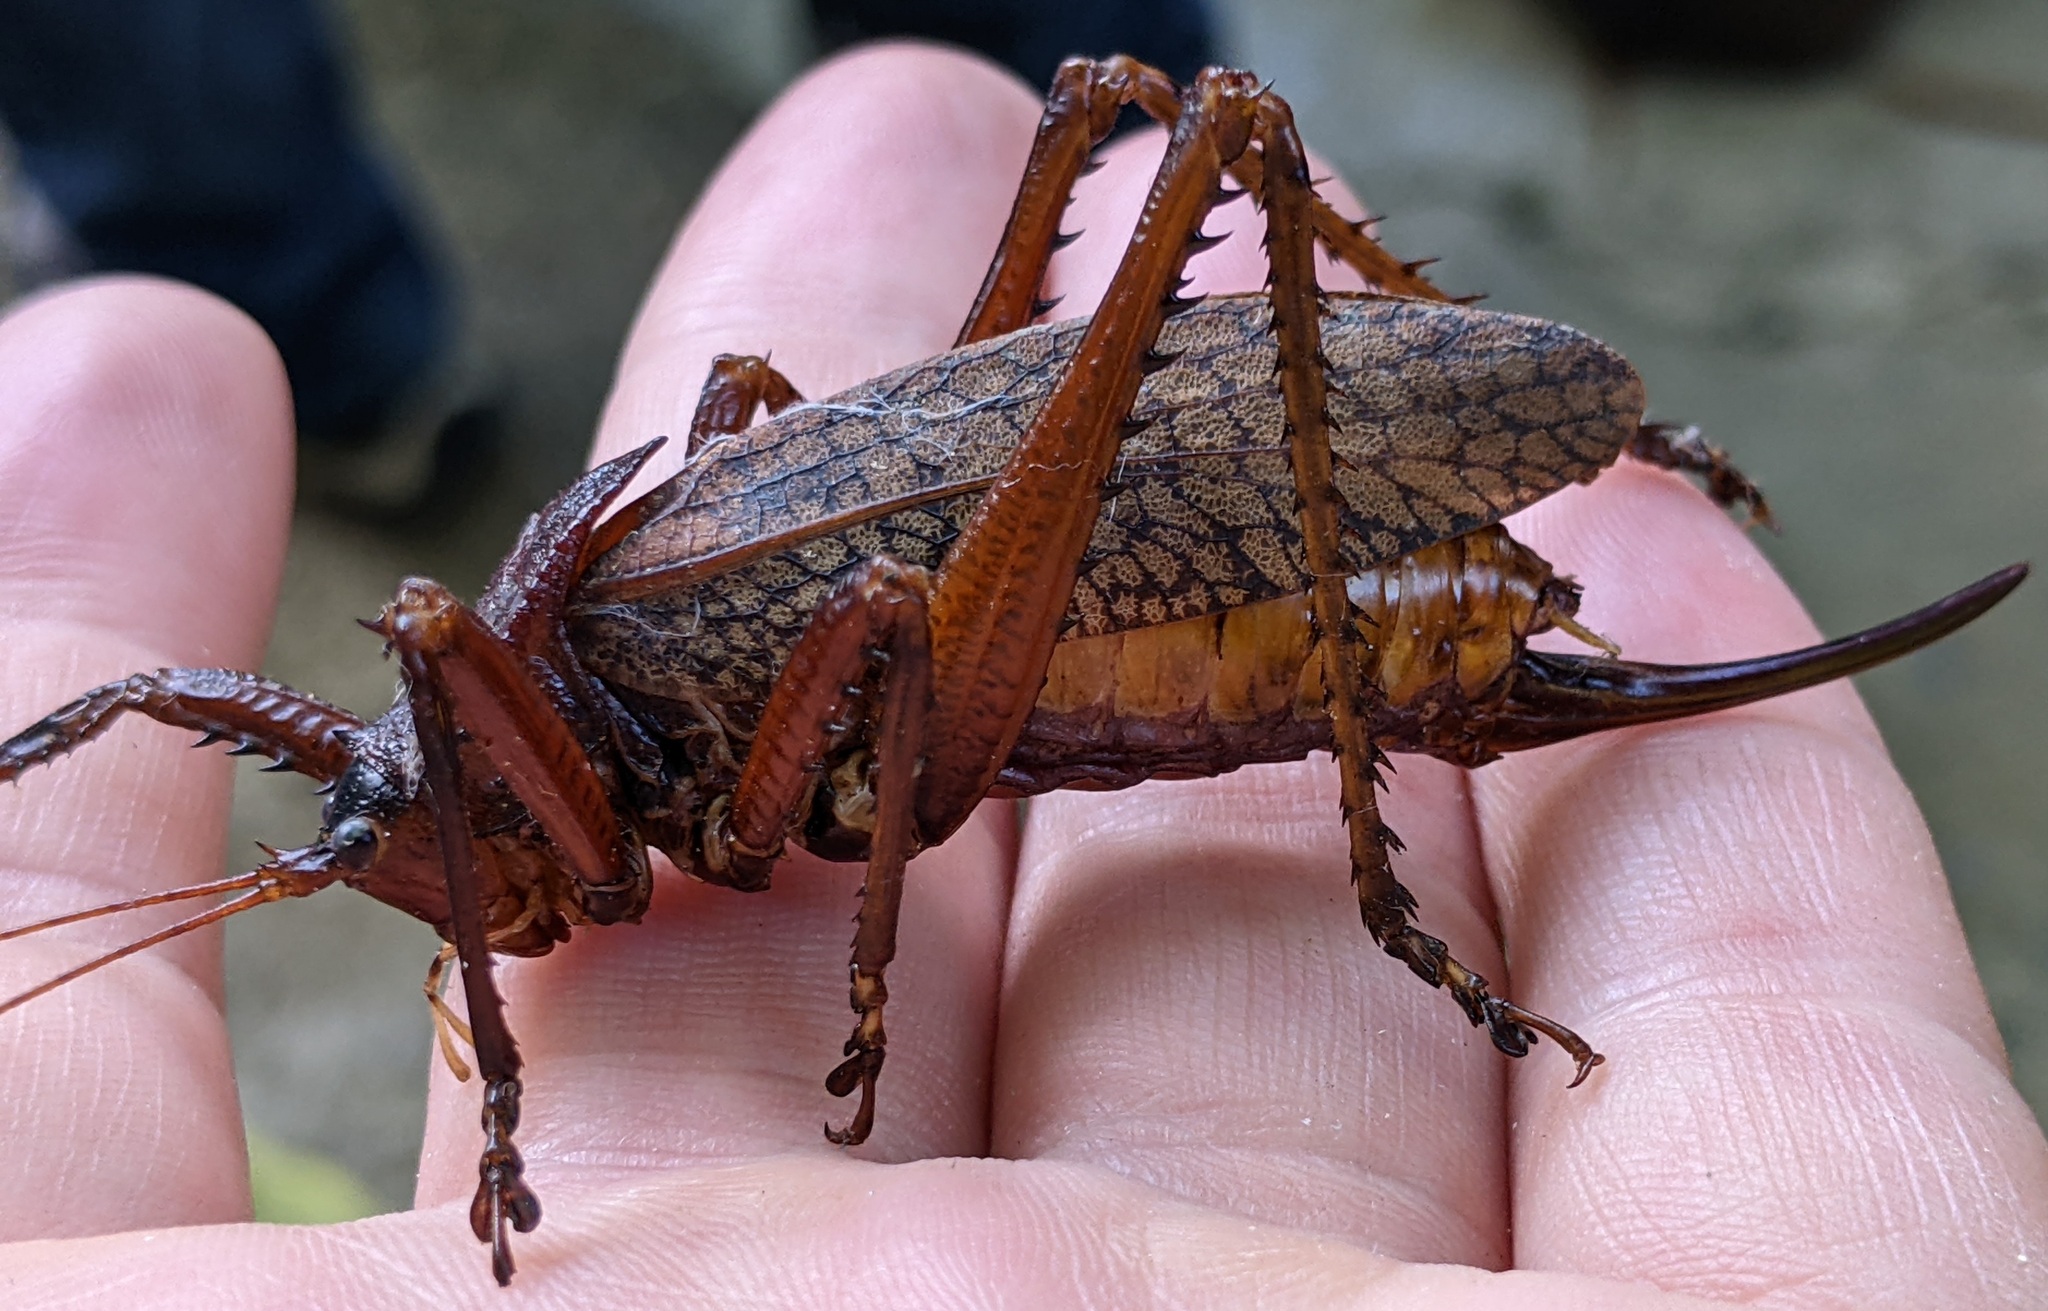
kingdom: Animalia
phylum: Arthropoda
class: Insecta
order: Orthoptera
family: Tettigoniidae
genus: Polyancistrus
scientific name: Polyancistrus serrulatus
